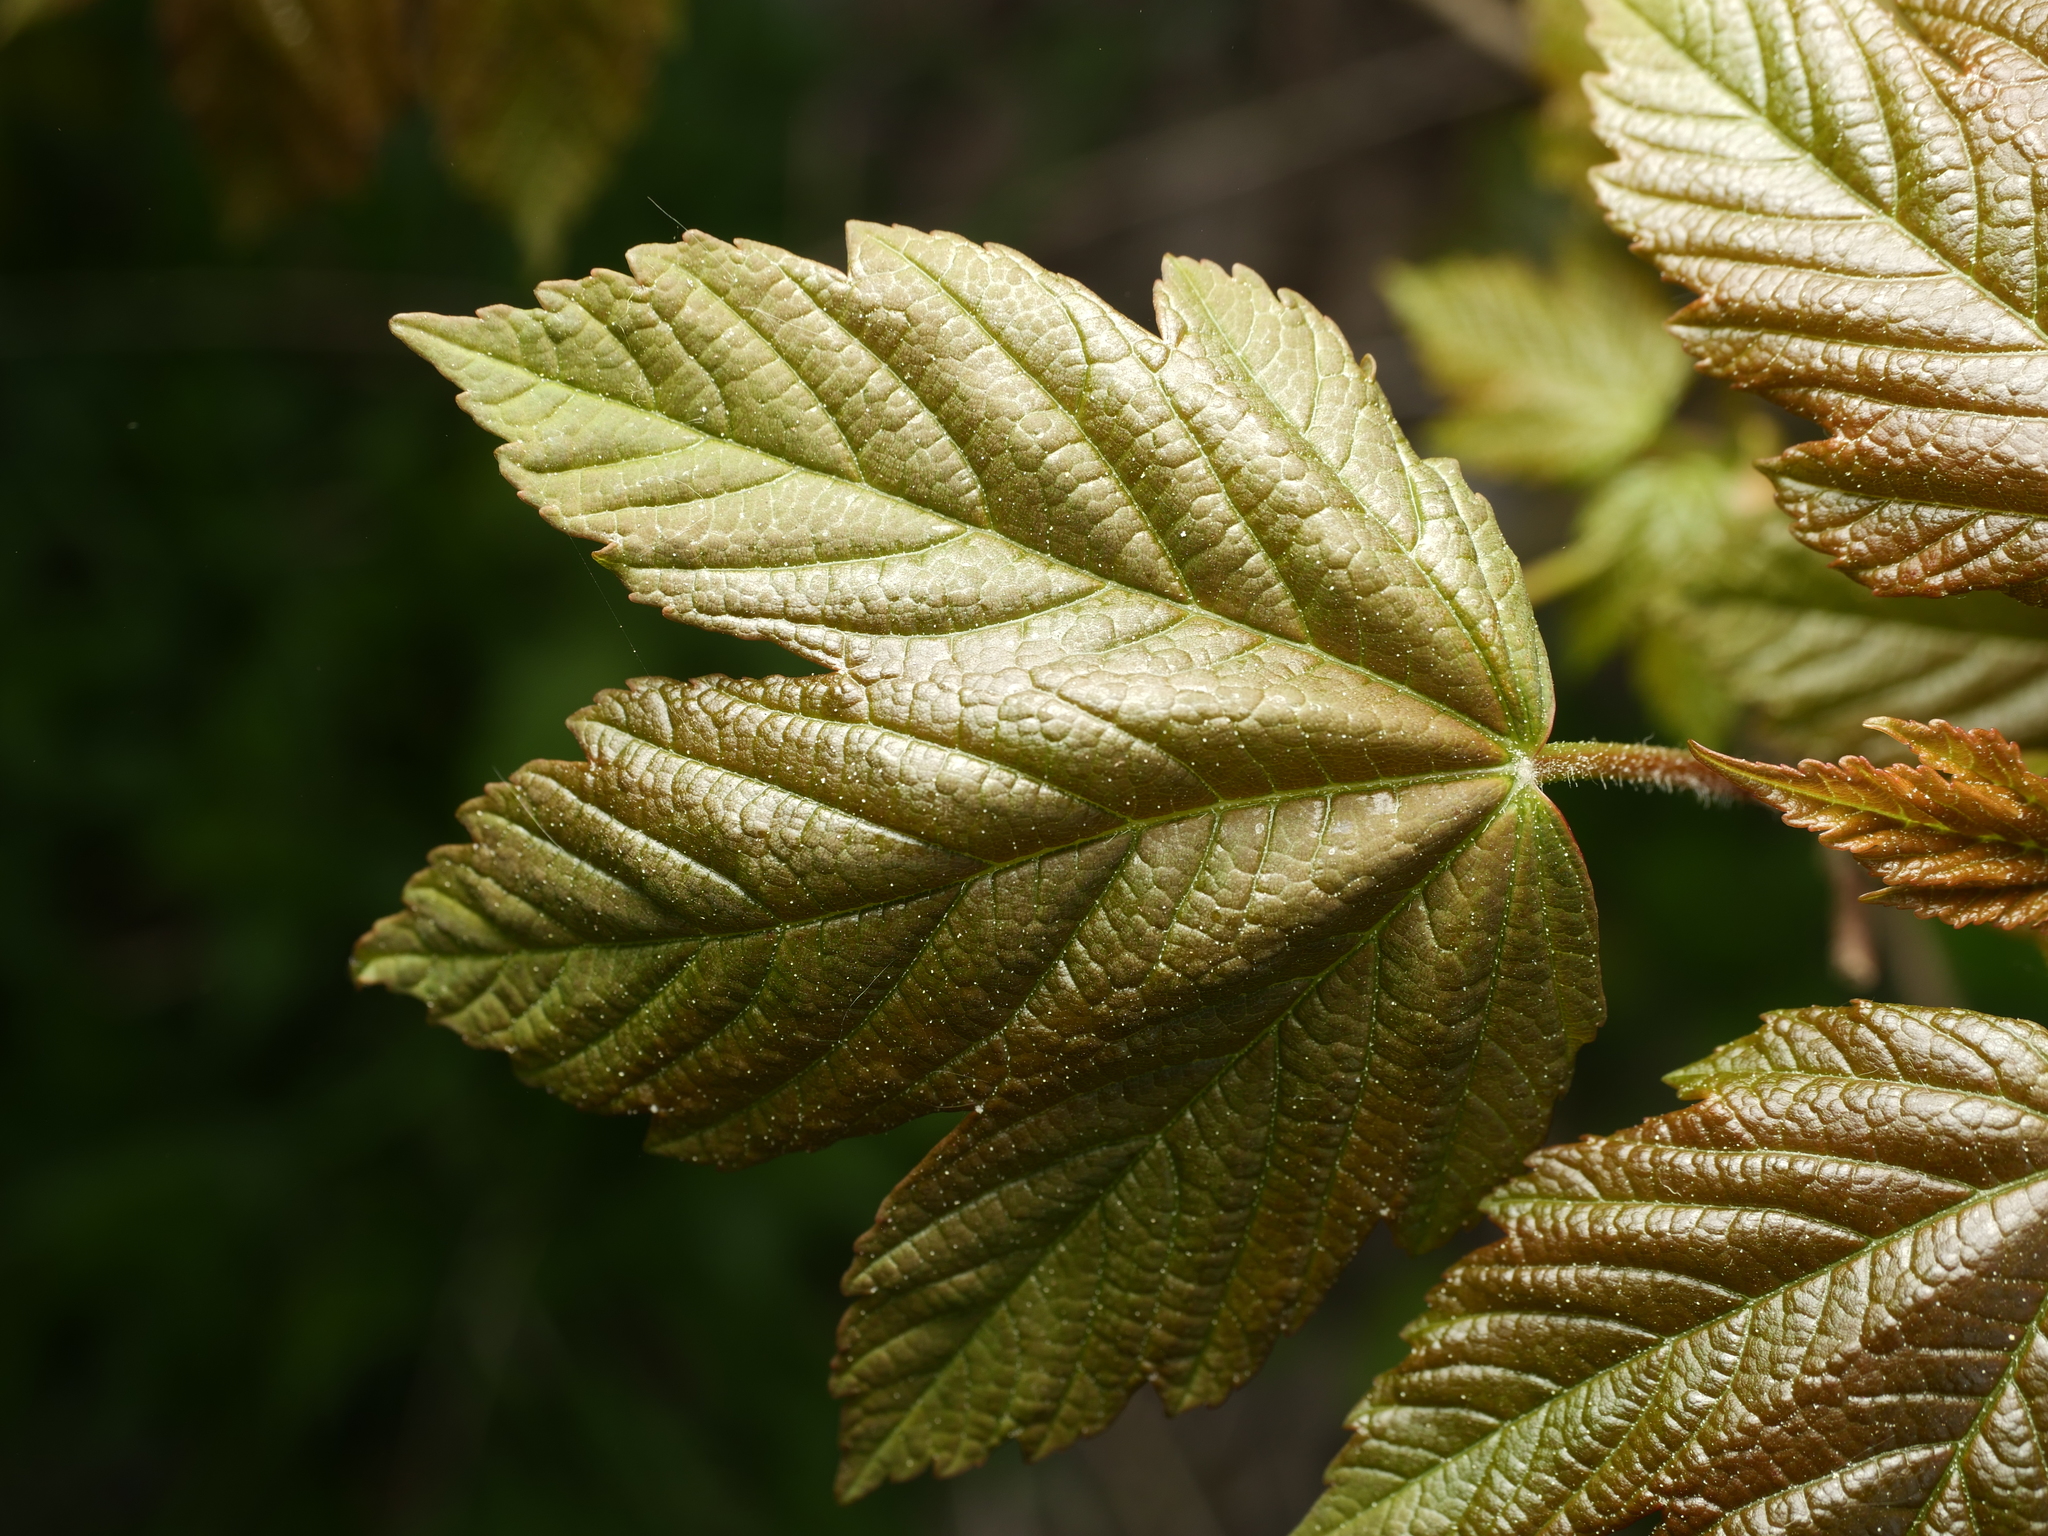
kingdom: Plantae
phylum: Tracheophyta
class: Magnoliopsida
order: Sapindales
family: Sapindaceae
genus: Acer
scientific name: Acer pseudoplatanus
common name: Sycamore
